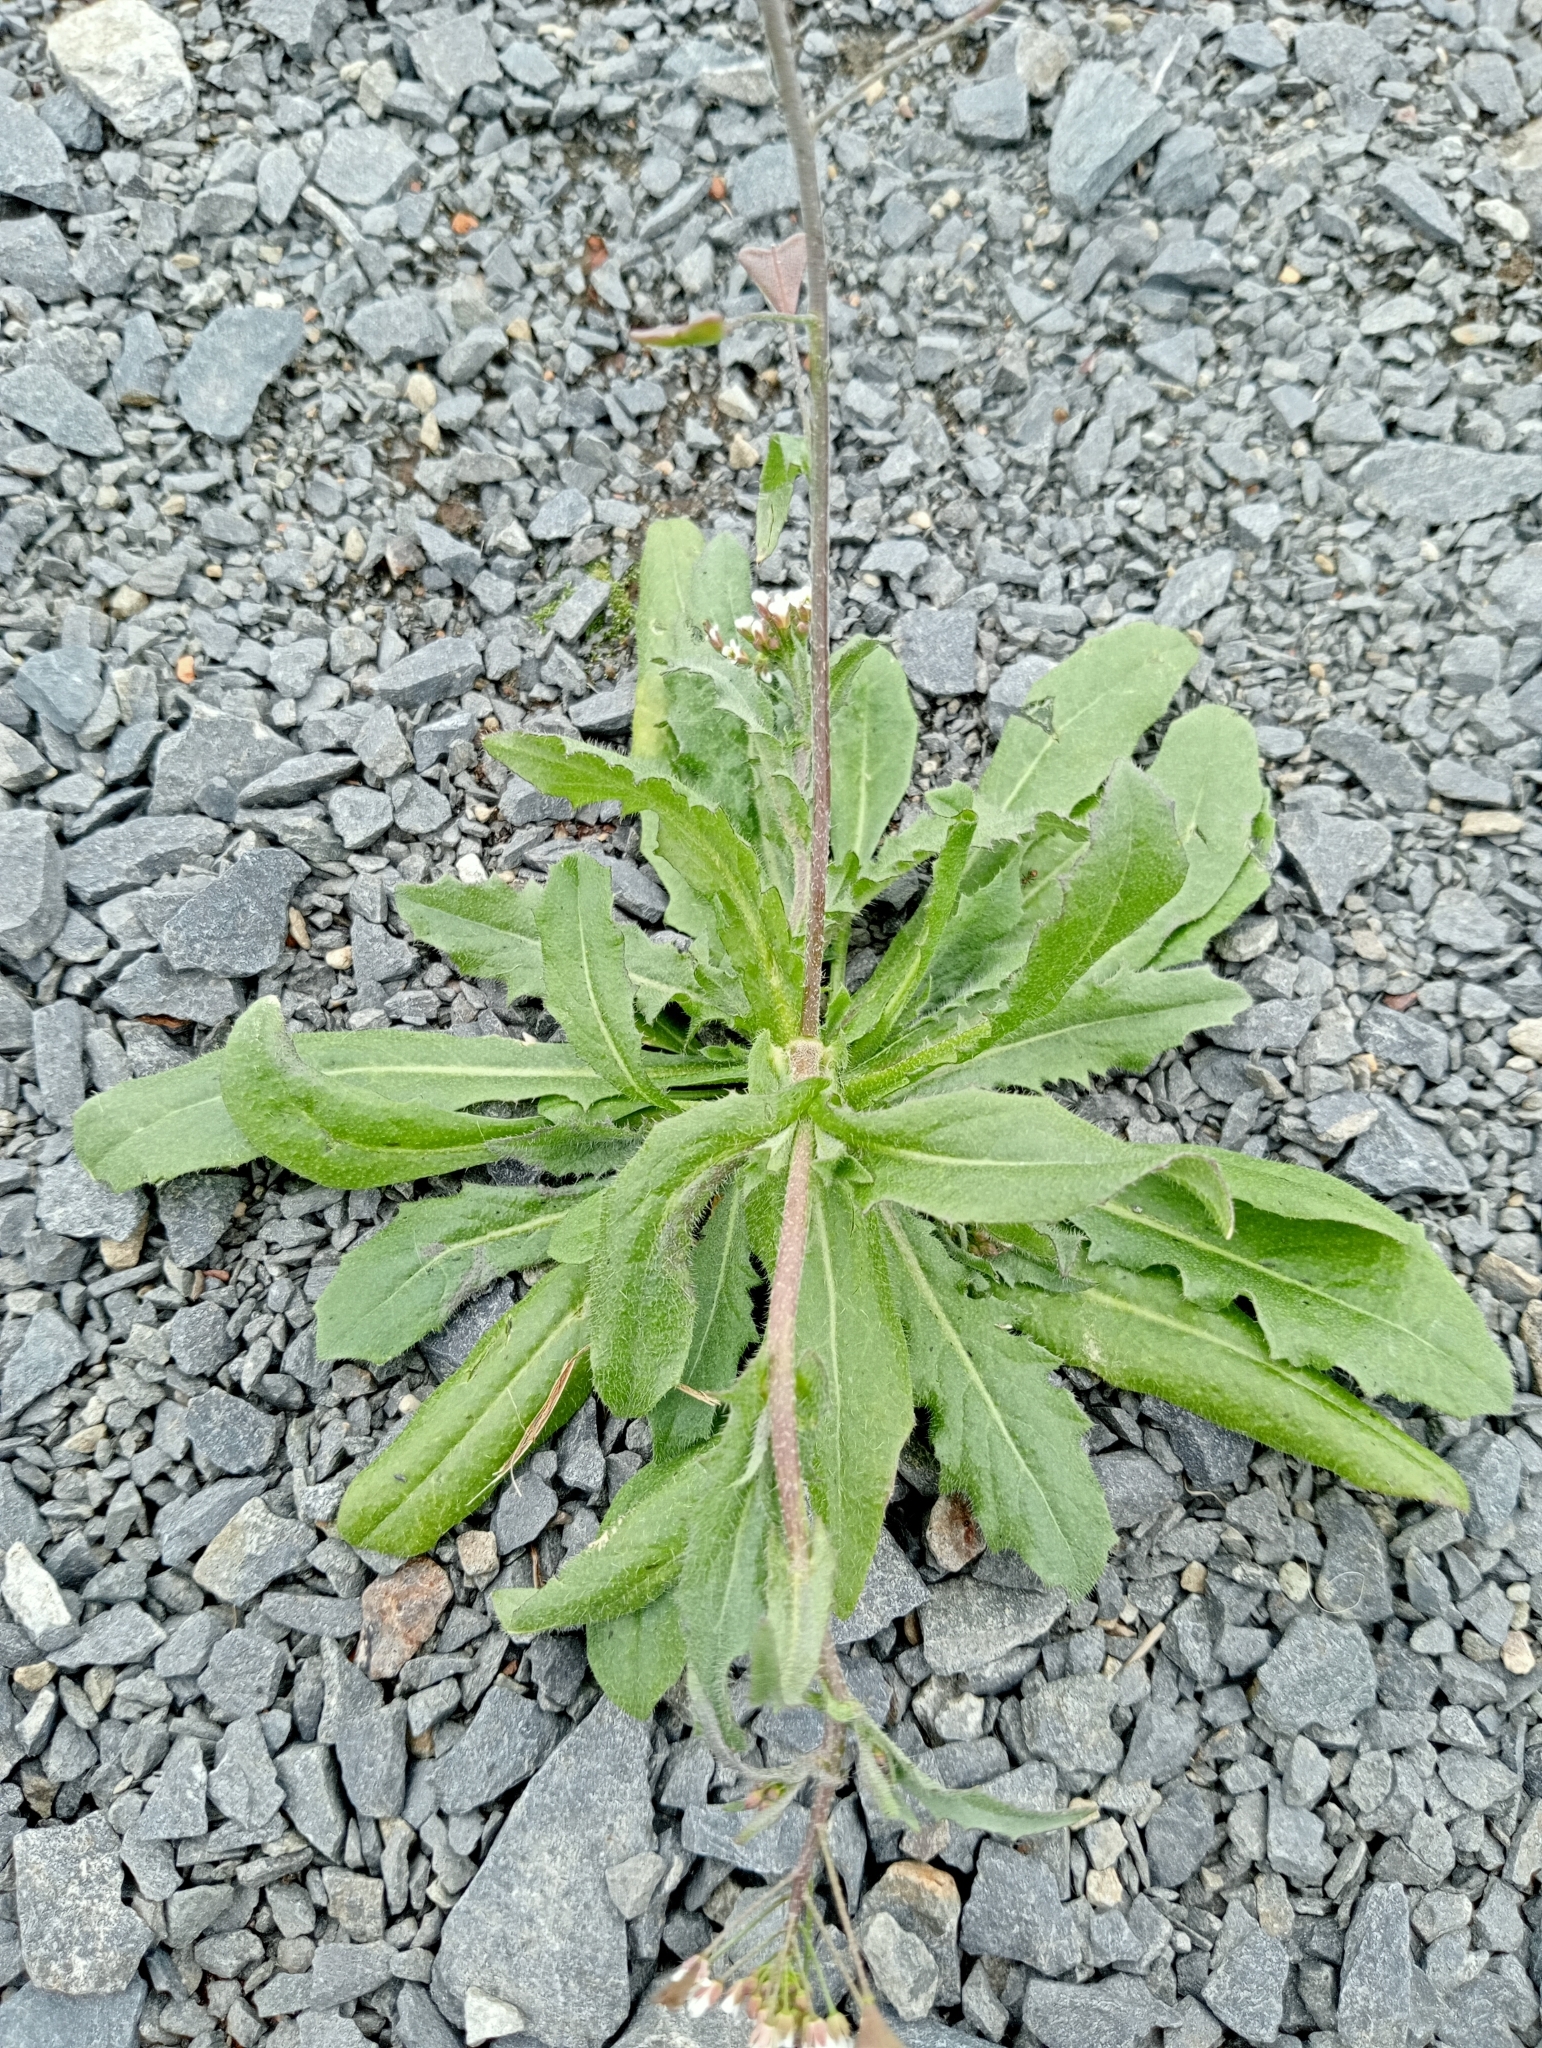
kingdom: Plantae
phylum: Tracheophyta
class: Magnoliopsida
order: Brassicales
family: Brassicaceae
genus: Capsella
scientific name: Capsella bursa-pastoris
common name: Shepherd's purse
